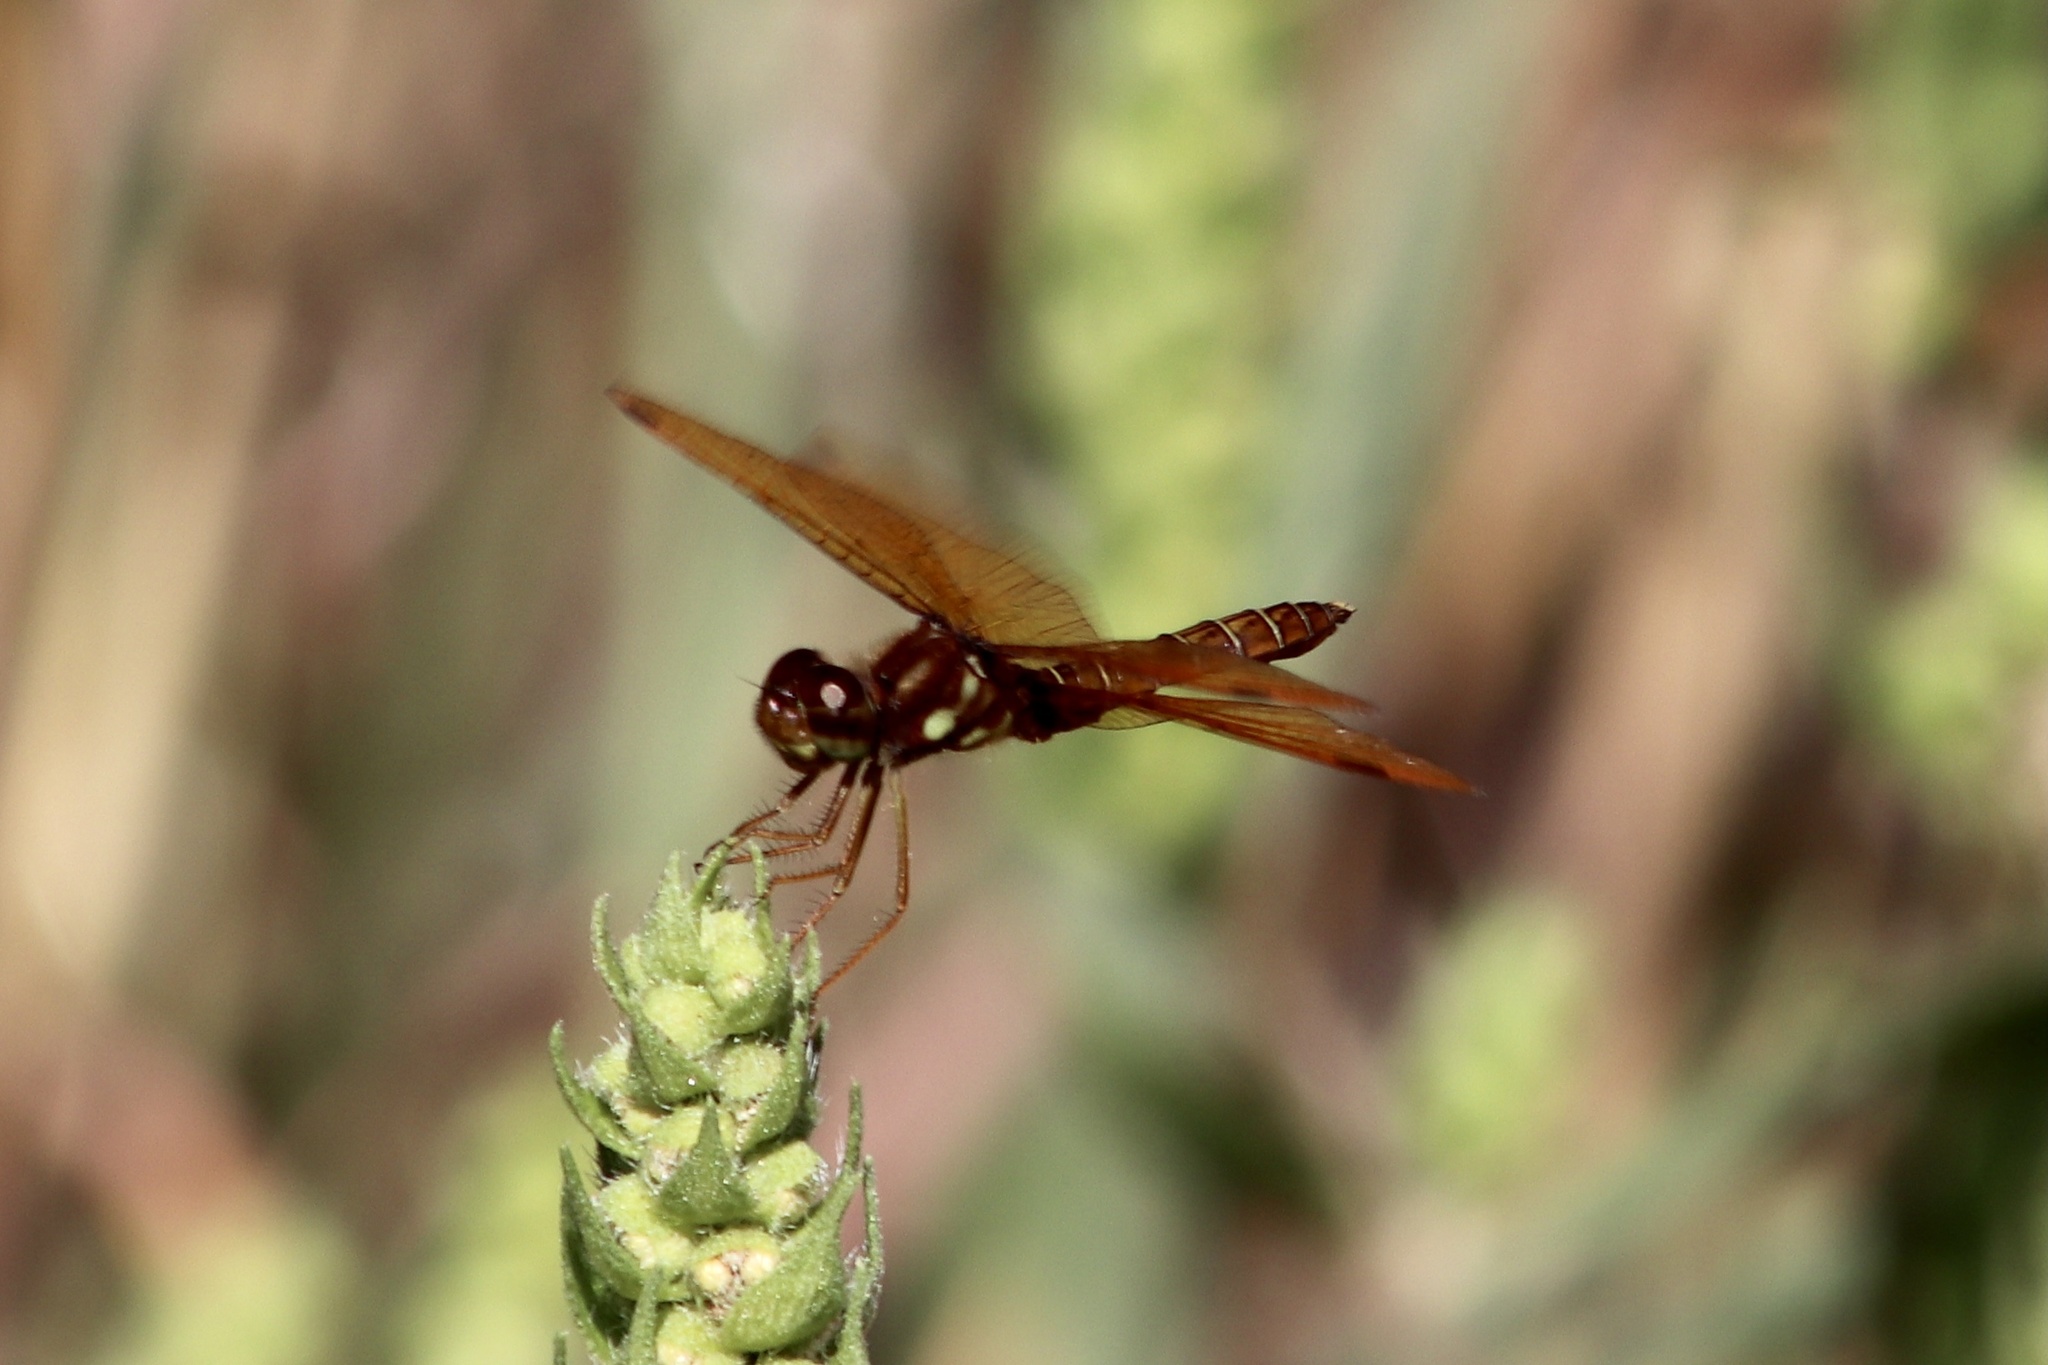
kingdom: Animalia
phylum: Arthropoda
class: Insecta
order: Odonata
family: Libellulidae
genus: Perithemis
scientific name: Perithemis tenera
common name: Eastern amberwing
